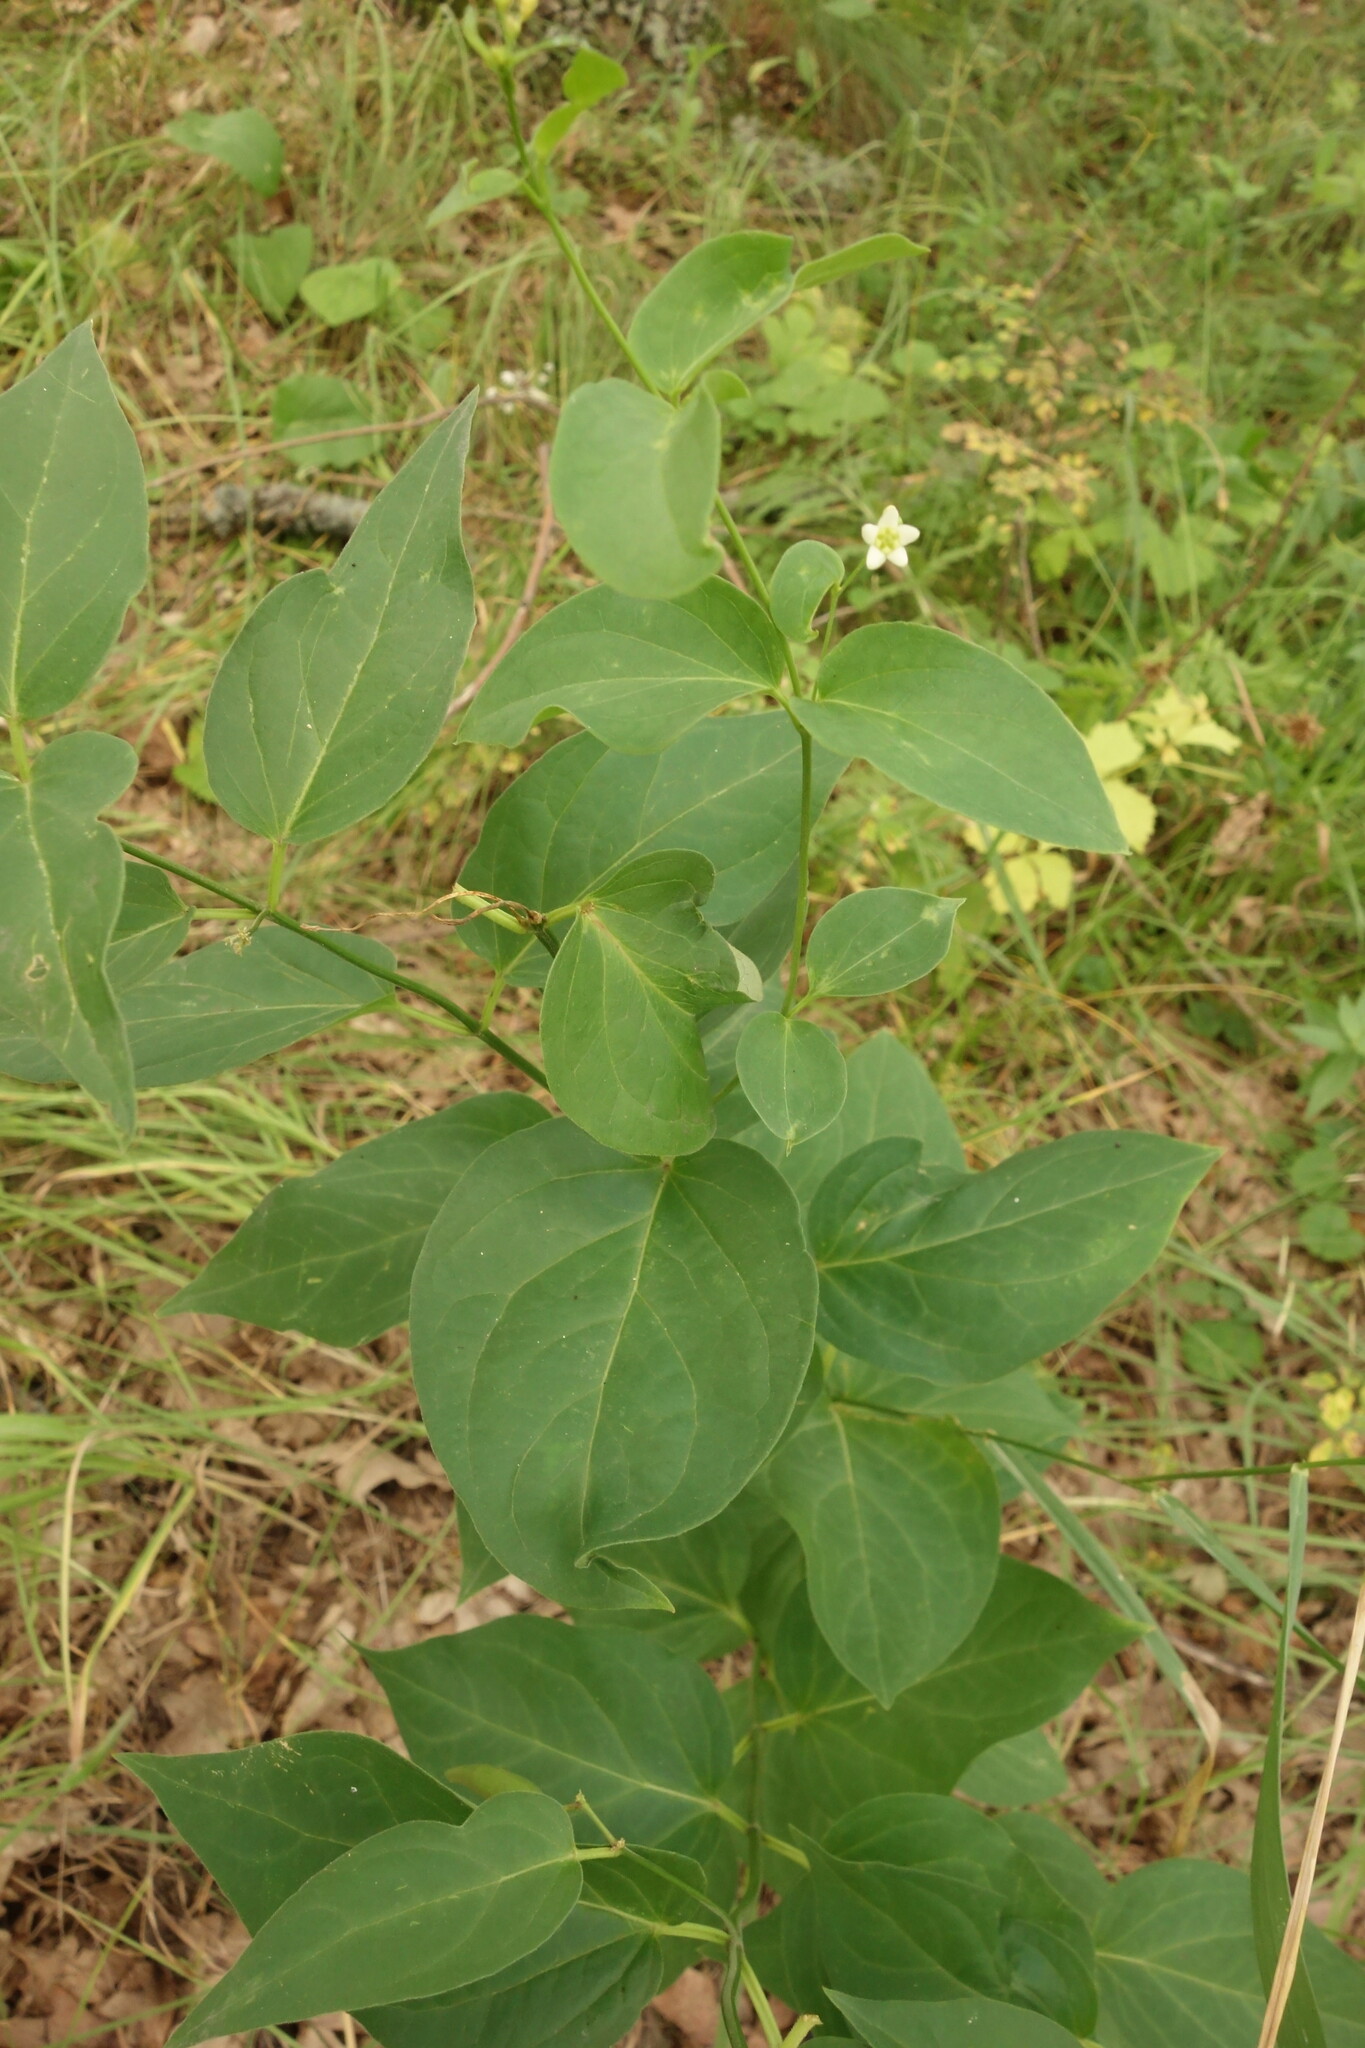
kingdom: Plantae
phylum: Tracheophyta
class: Magnoliopsida
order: Gentianales
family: Apocynaceae
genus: Vincetoxicum
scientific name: Vincetoxicum hirundinaria
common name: White swallowwort
